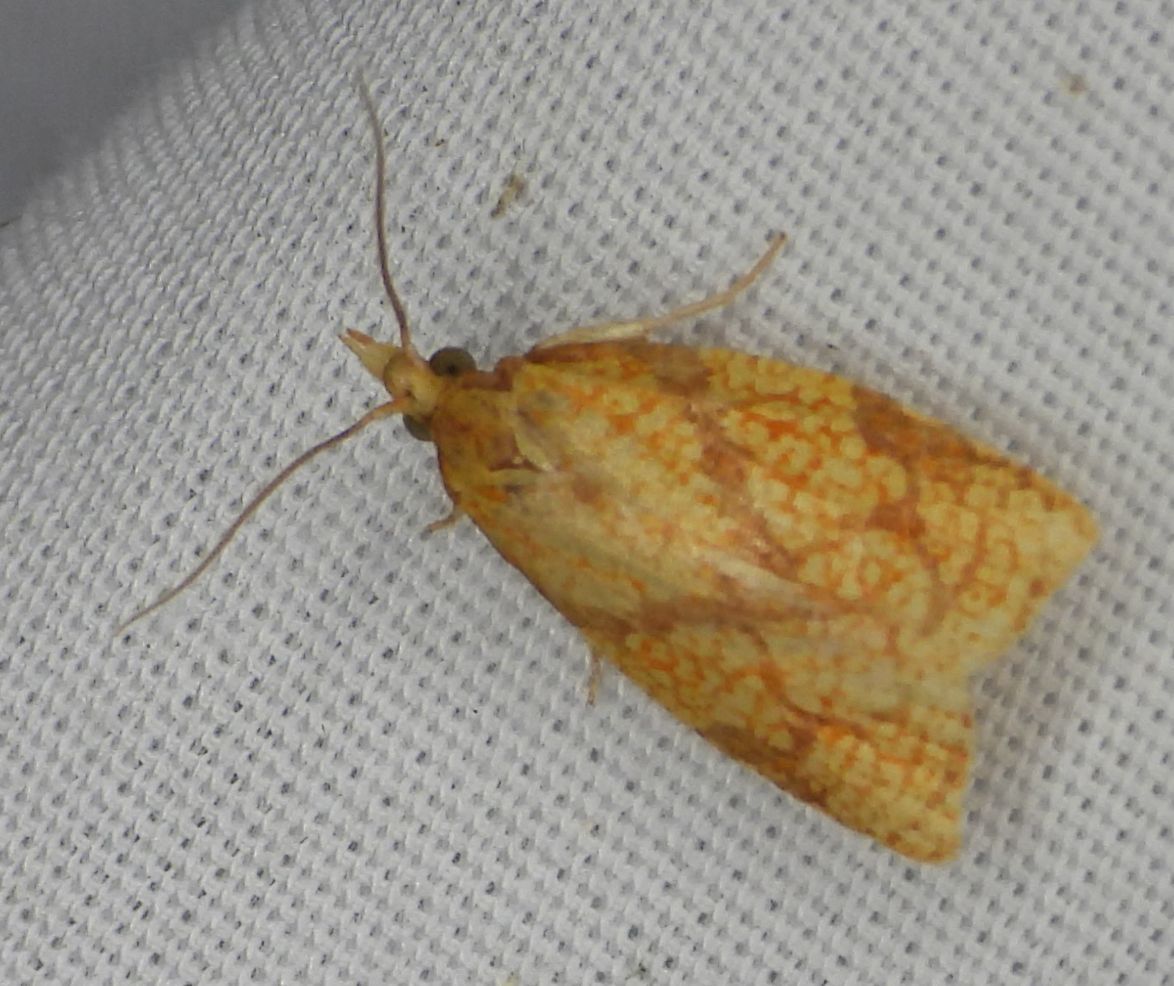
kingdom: Animalia
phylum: Arthropoda
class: Insecta
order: Lepidoptera
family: Tortricidae
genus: Cenopis
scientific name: Cenopis reticulatana
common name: Reticulated fruitworm moth
